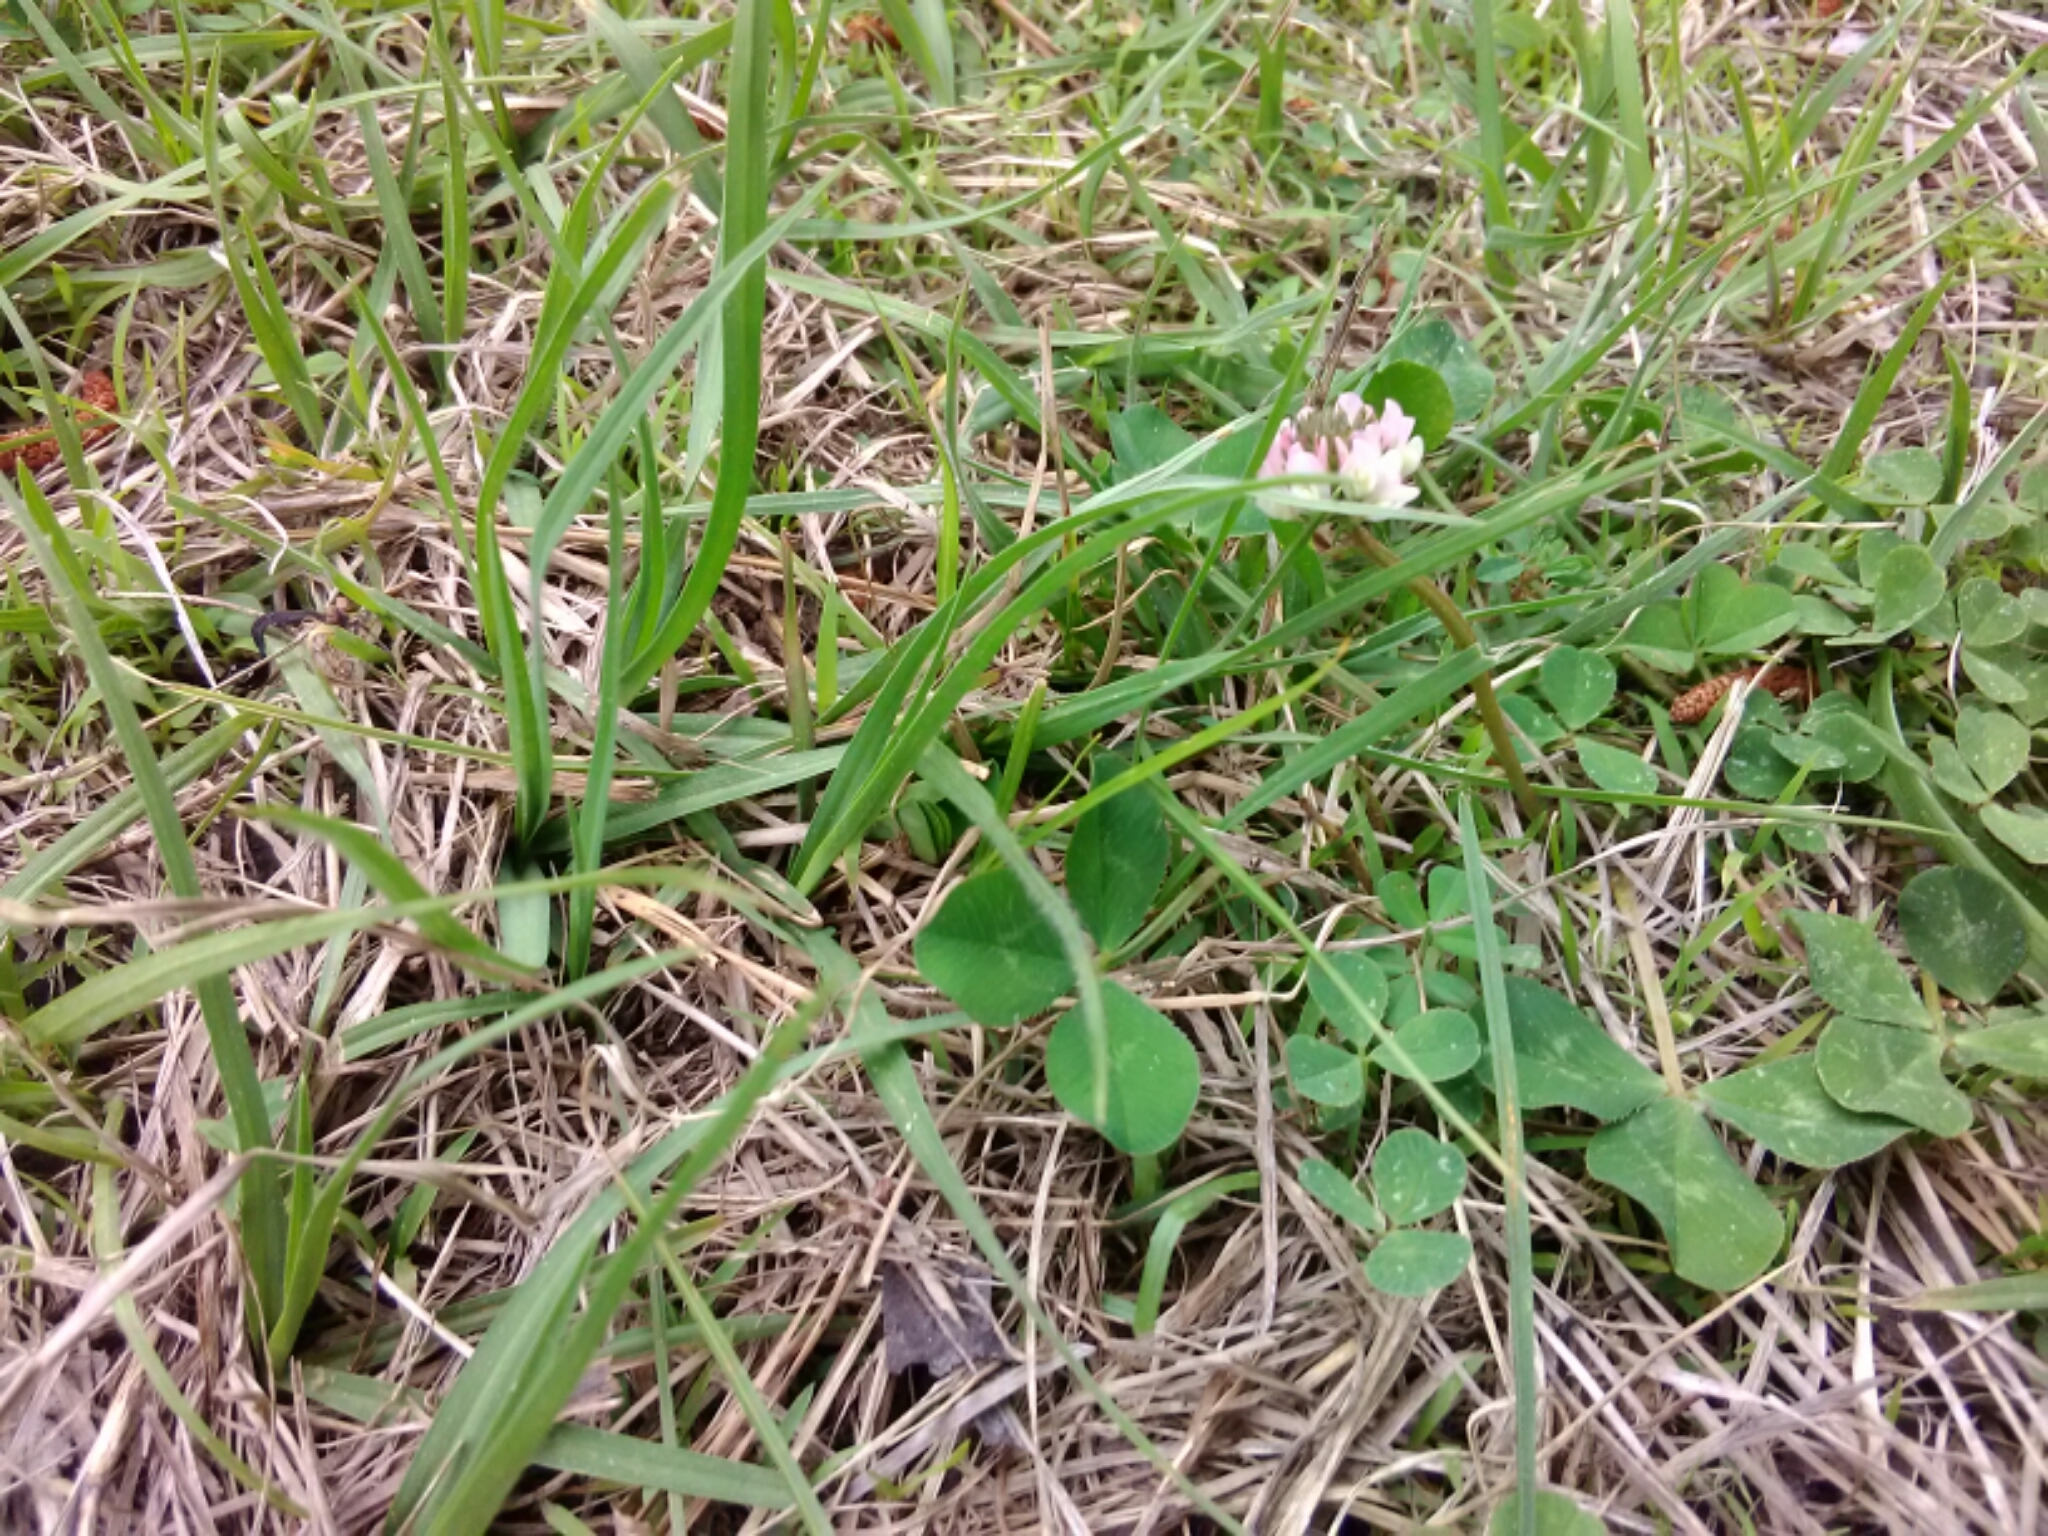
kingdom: Plantae
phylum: Tracheophyta
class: Magnoliopsida
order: Fabales
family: Fabaceae
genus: Trifolium
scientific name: Trifolium repens
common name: White clover
